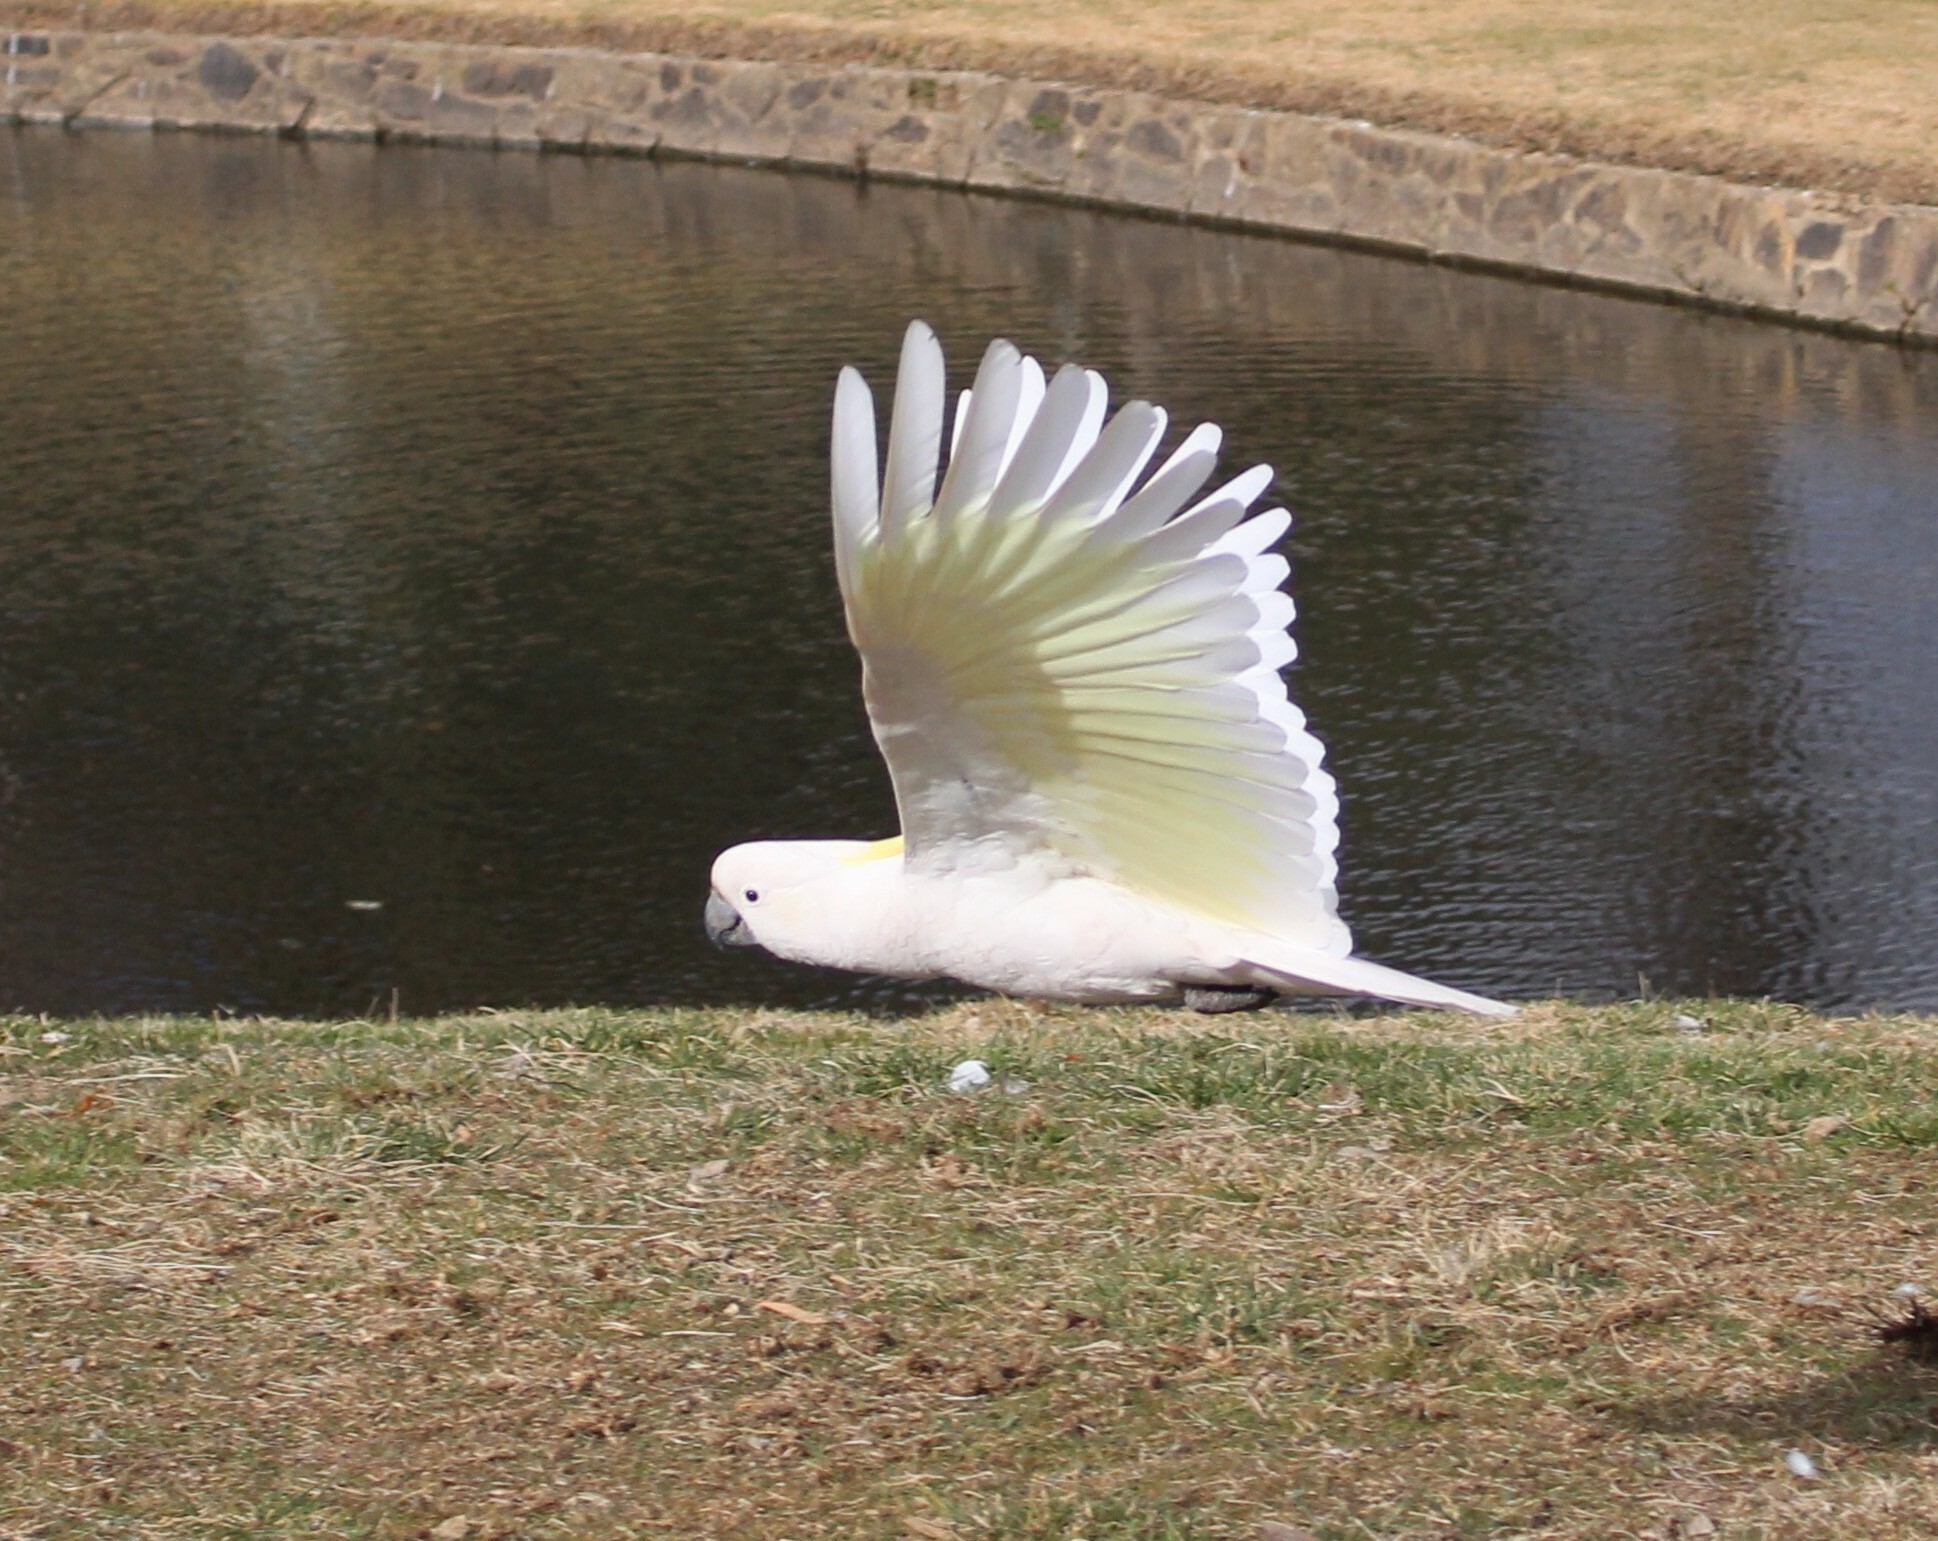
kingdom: Animalia
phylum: Chordata
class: Aves
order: Psittaciformes
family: Psittacidae
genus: Cacatua
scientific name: Cacatua galerita
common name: Sulphur-crested cockatoo
